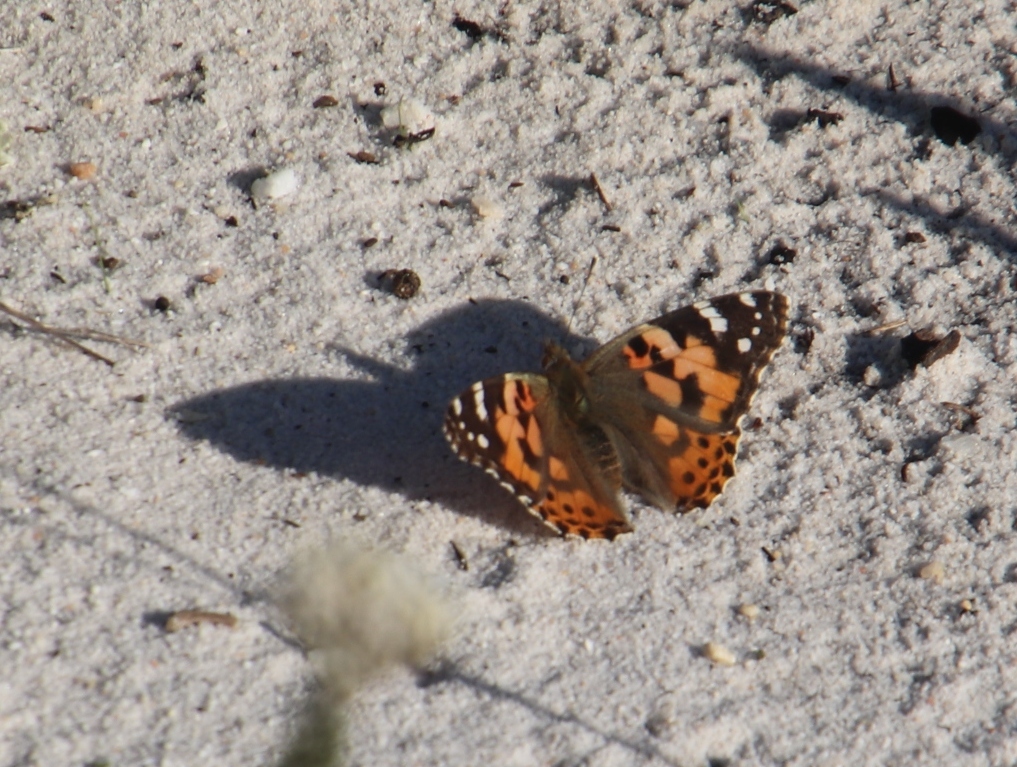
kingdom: Animalia
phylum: Arthropoda
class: Insecta
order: Lepidoptera
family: Nymphalidae
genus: Vanessa
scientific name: Vanessa cardui
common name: Painted lady
